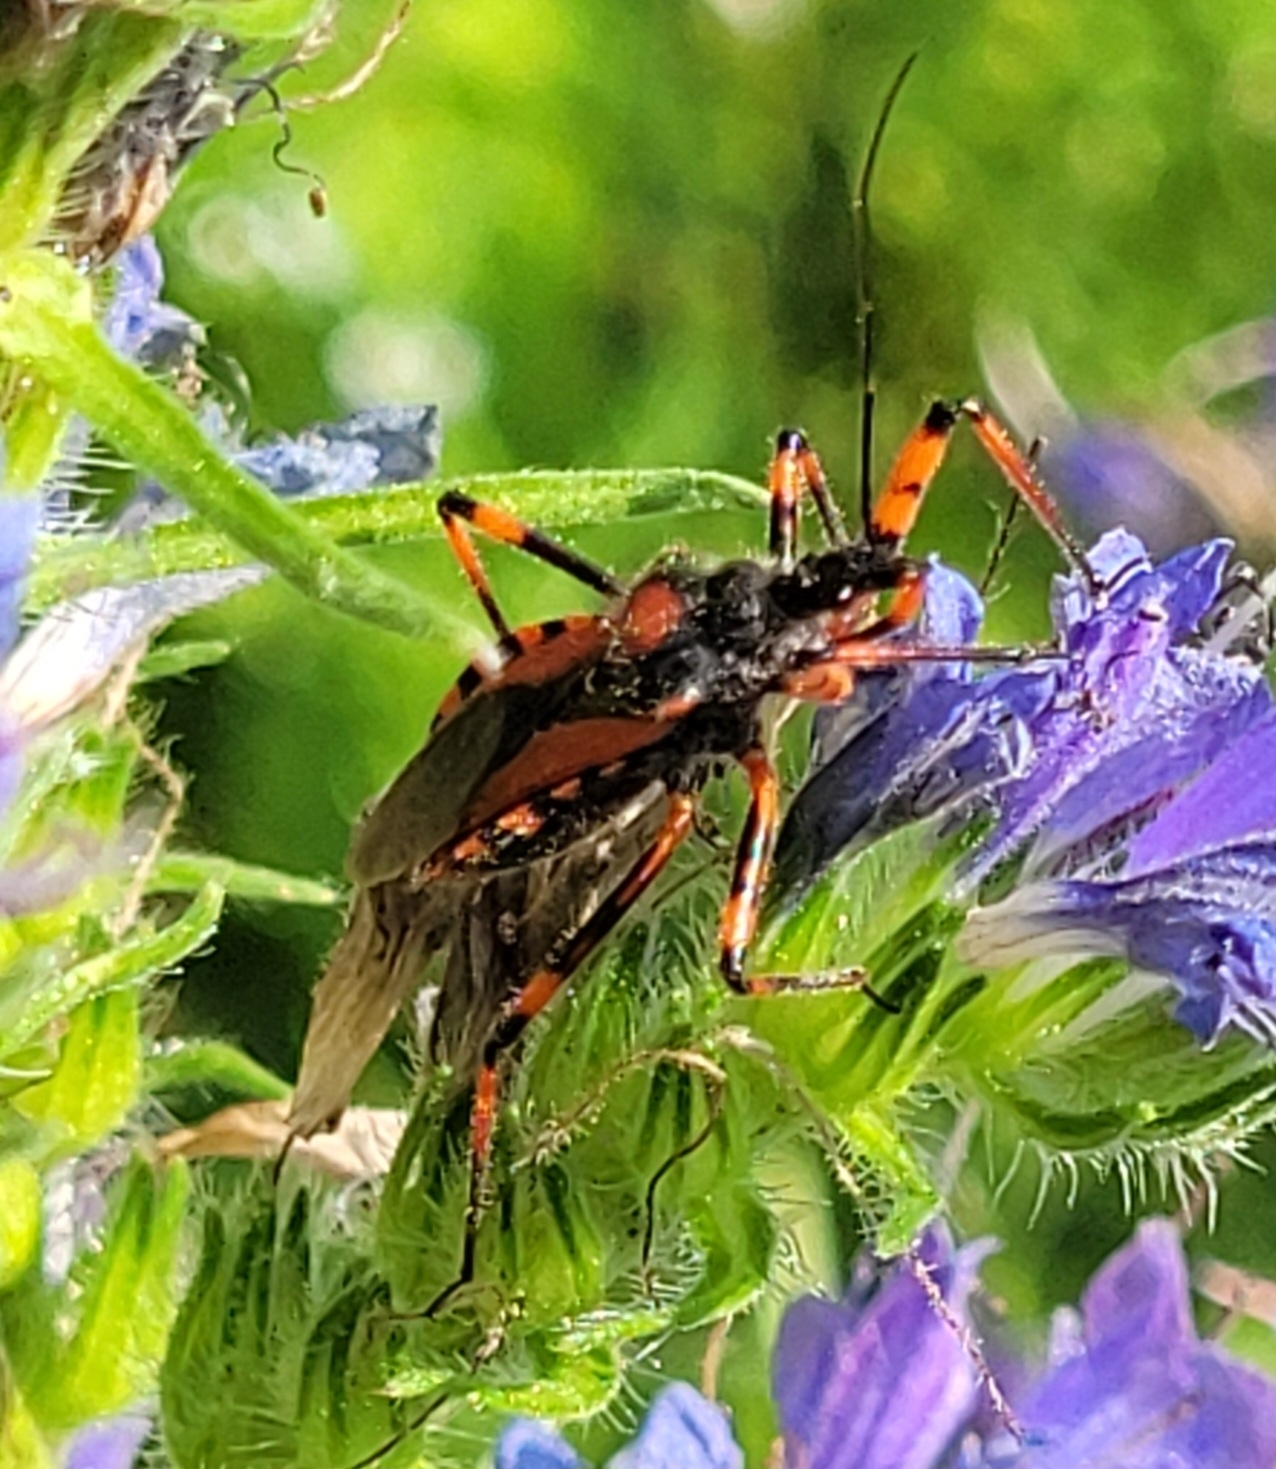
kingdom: Animalia
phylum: Arthropoda
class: Insecta
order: Hemiptera
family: Reduviidae
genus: Rhynocoris
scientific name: Rhynocoris iracundus
